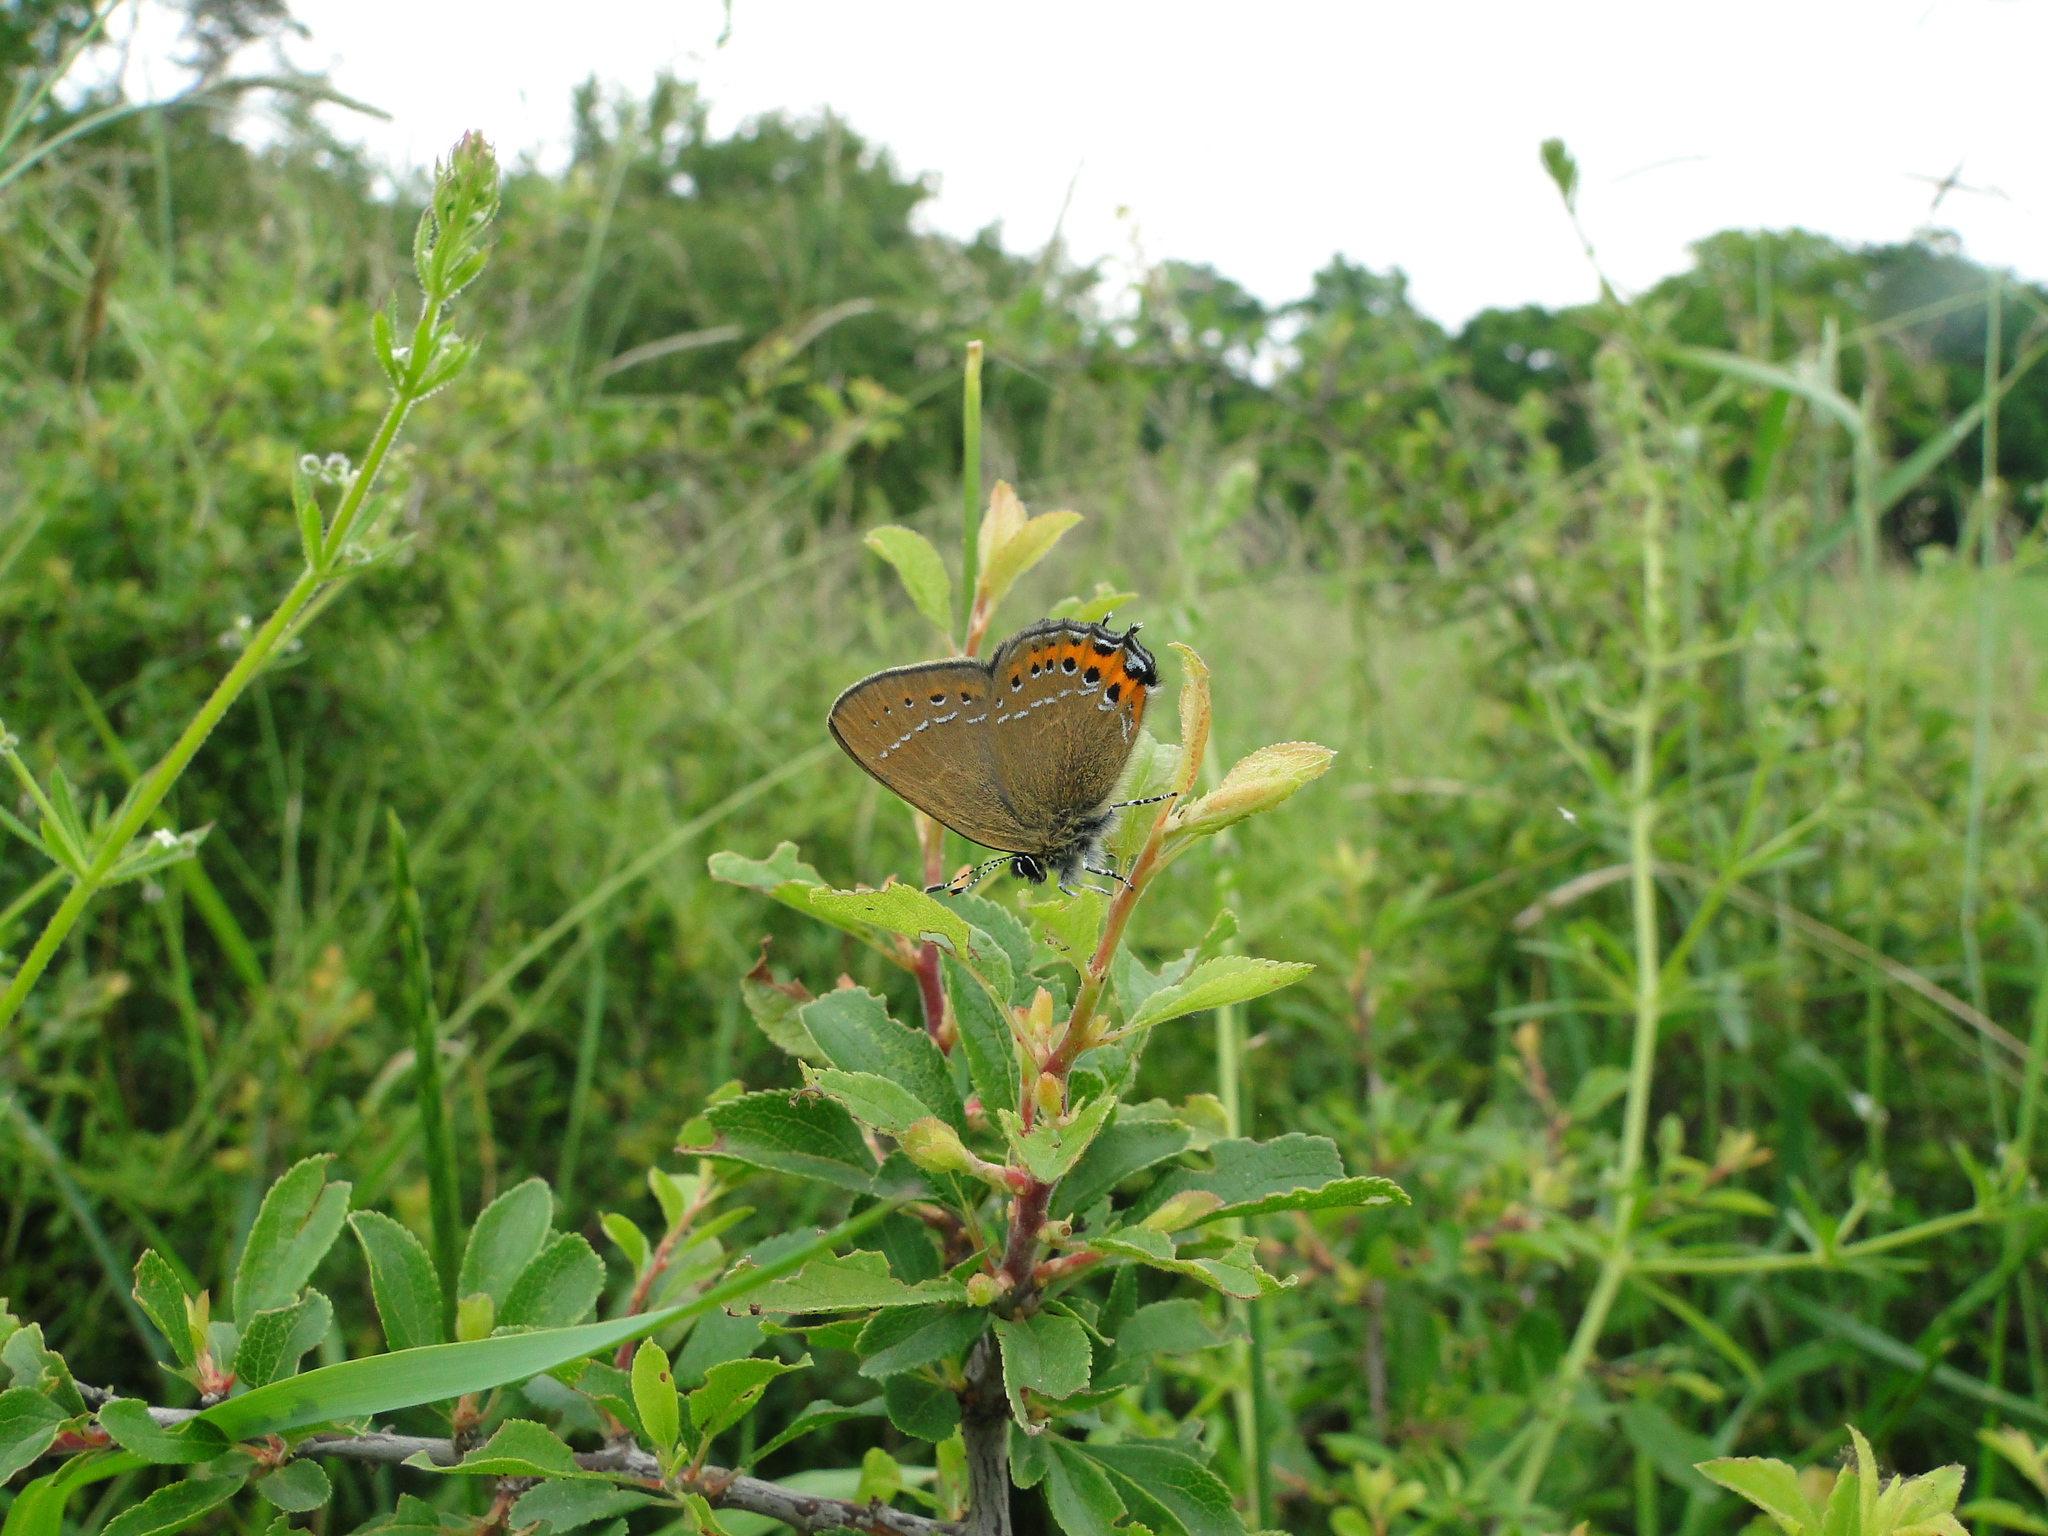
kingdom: Animalia
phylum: Arthropoda
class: Insecta
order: Lepidoptera
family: Lycaenidae
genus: Fixsenia
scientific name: Fixsenia pruni
